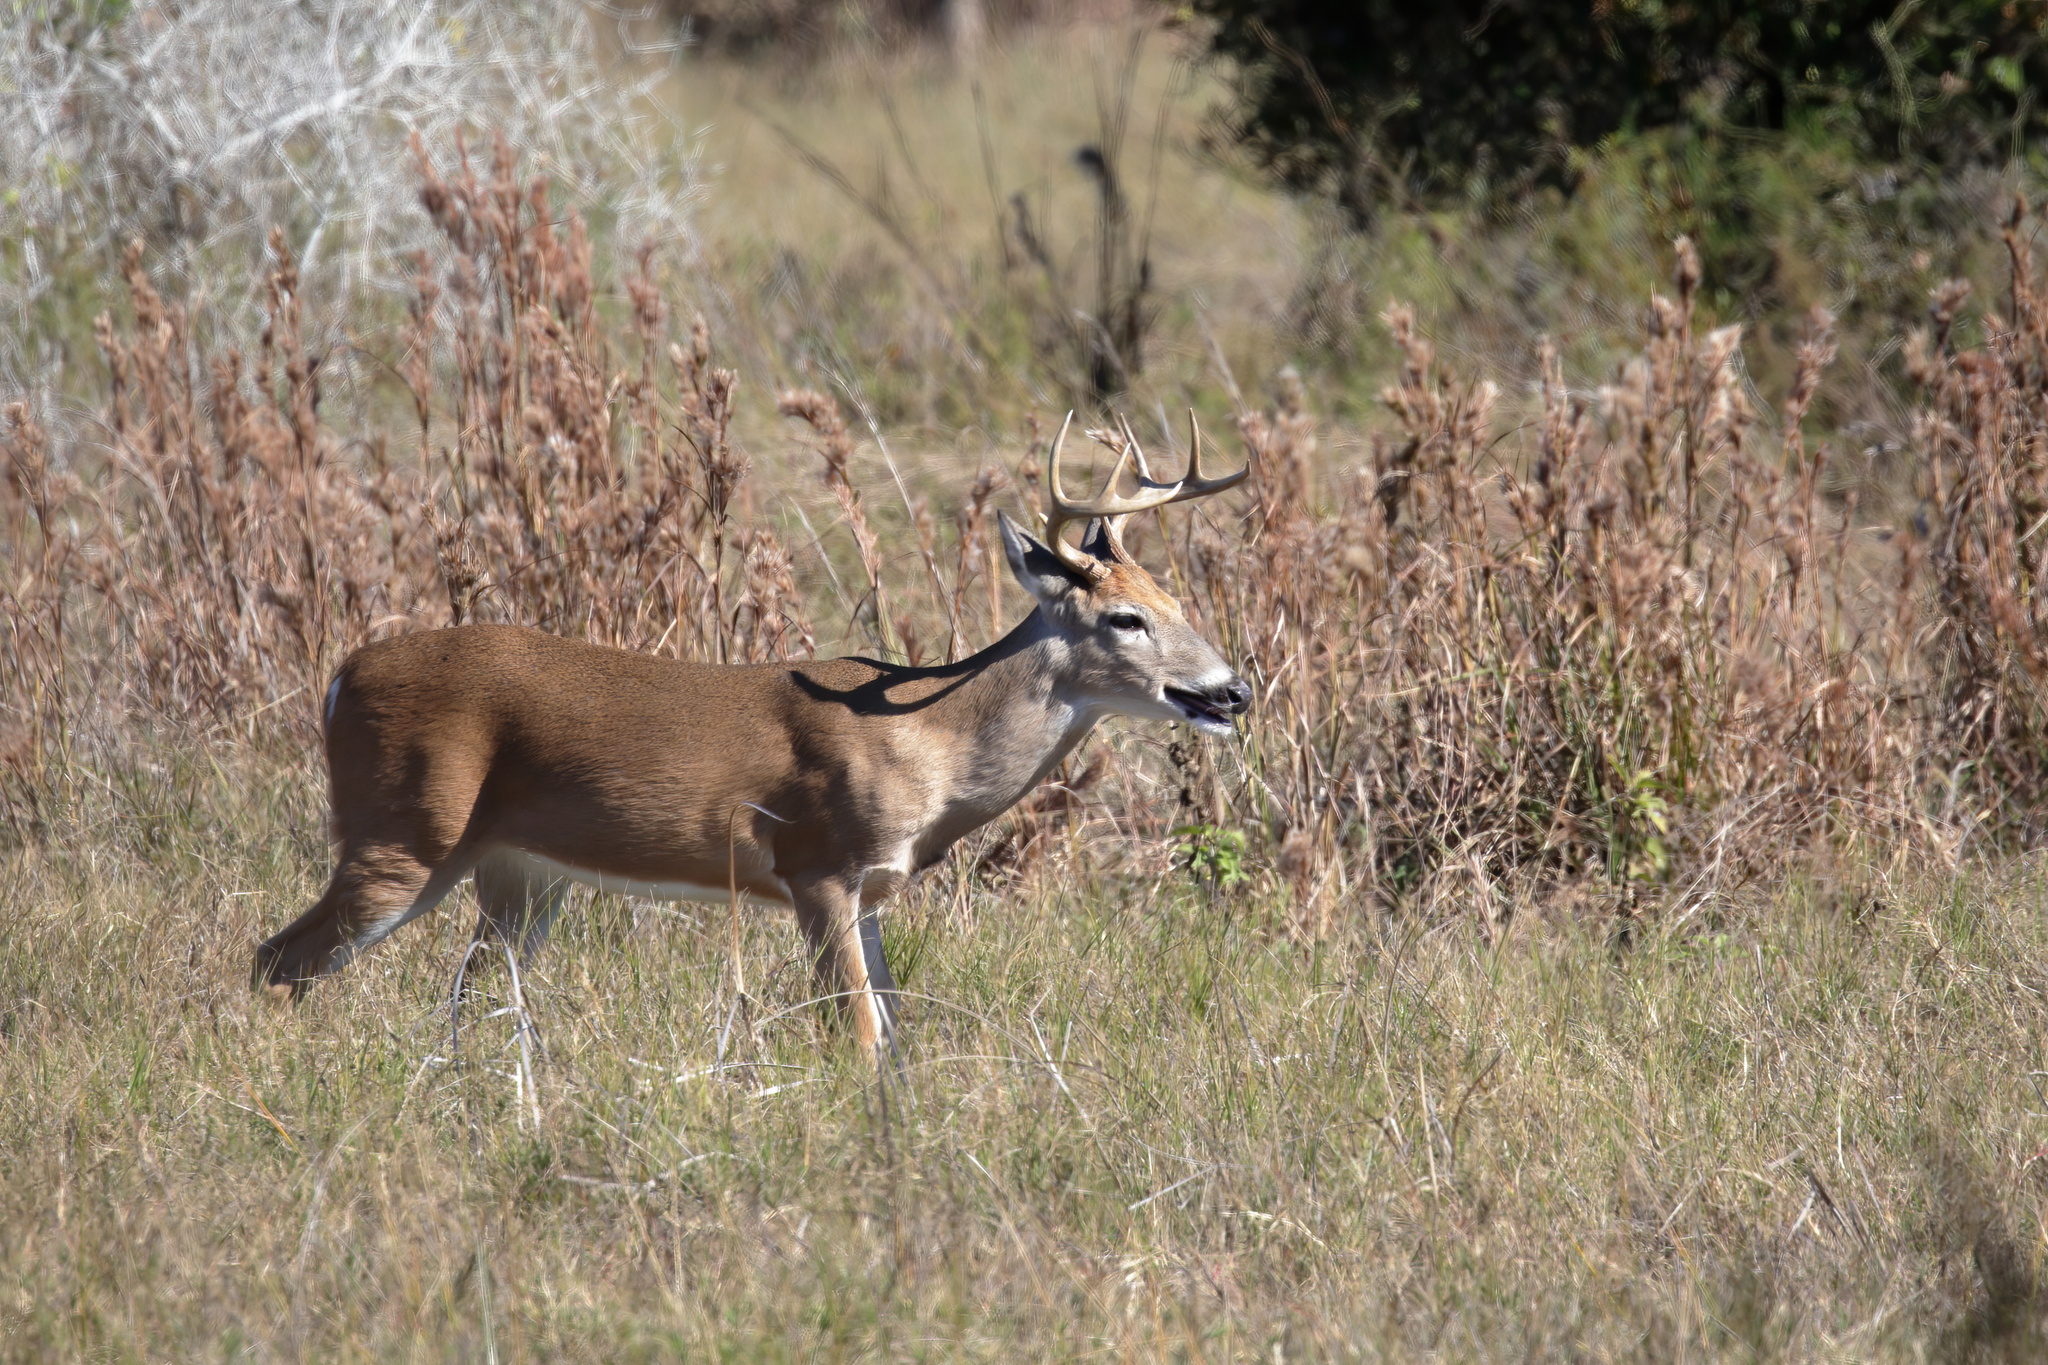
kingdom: Animalia
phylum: Chordata
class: Mammalia
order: Artiodactyla
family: Cervidae
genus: Odocoileus
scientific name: Odocoileus virginianus
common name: White-tailed deer
